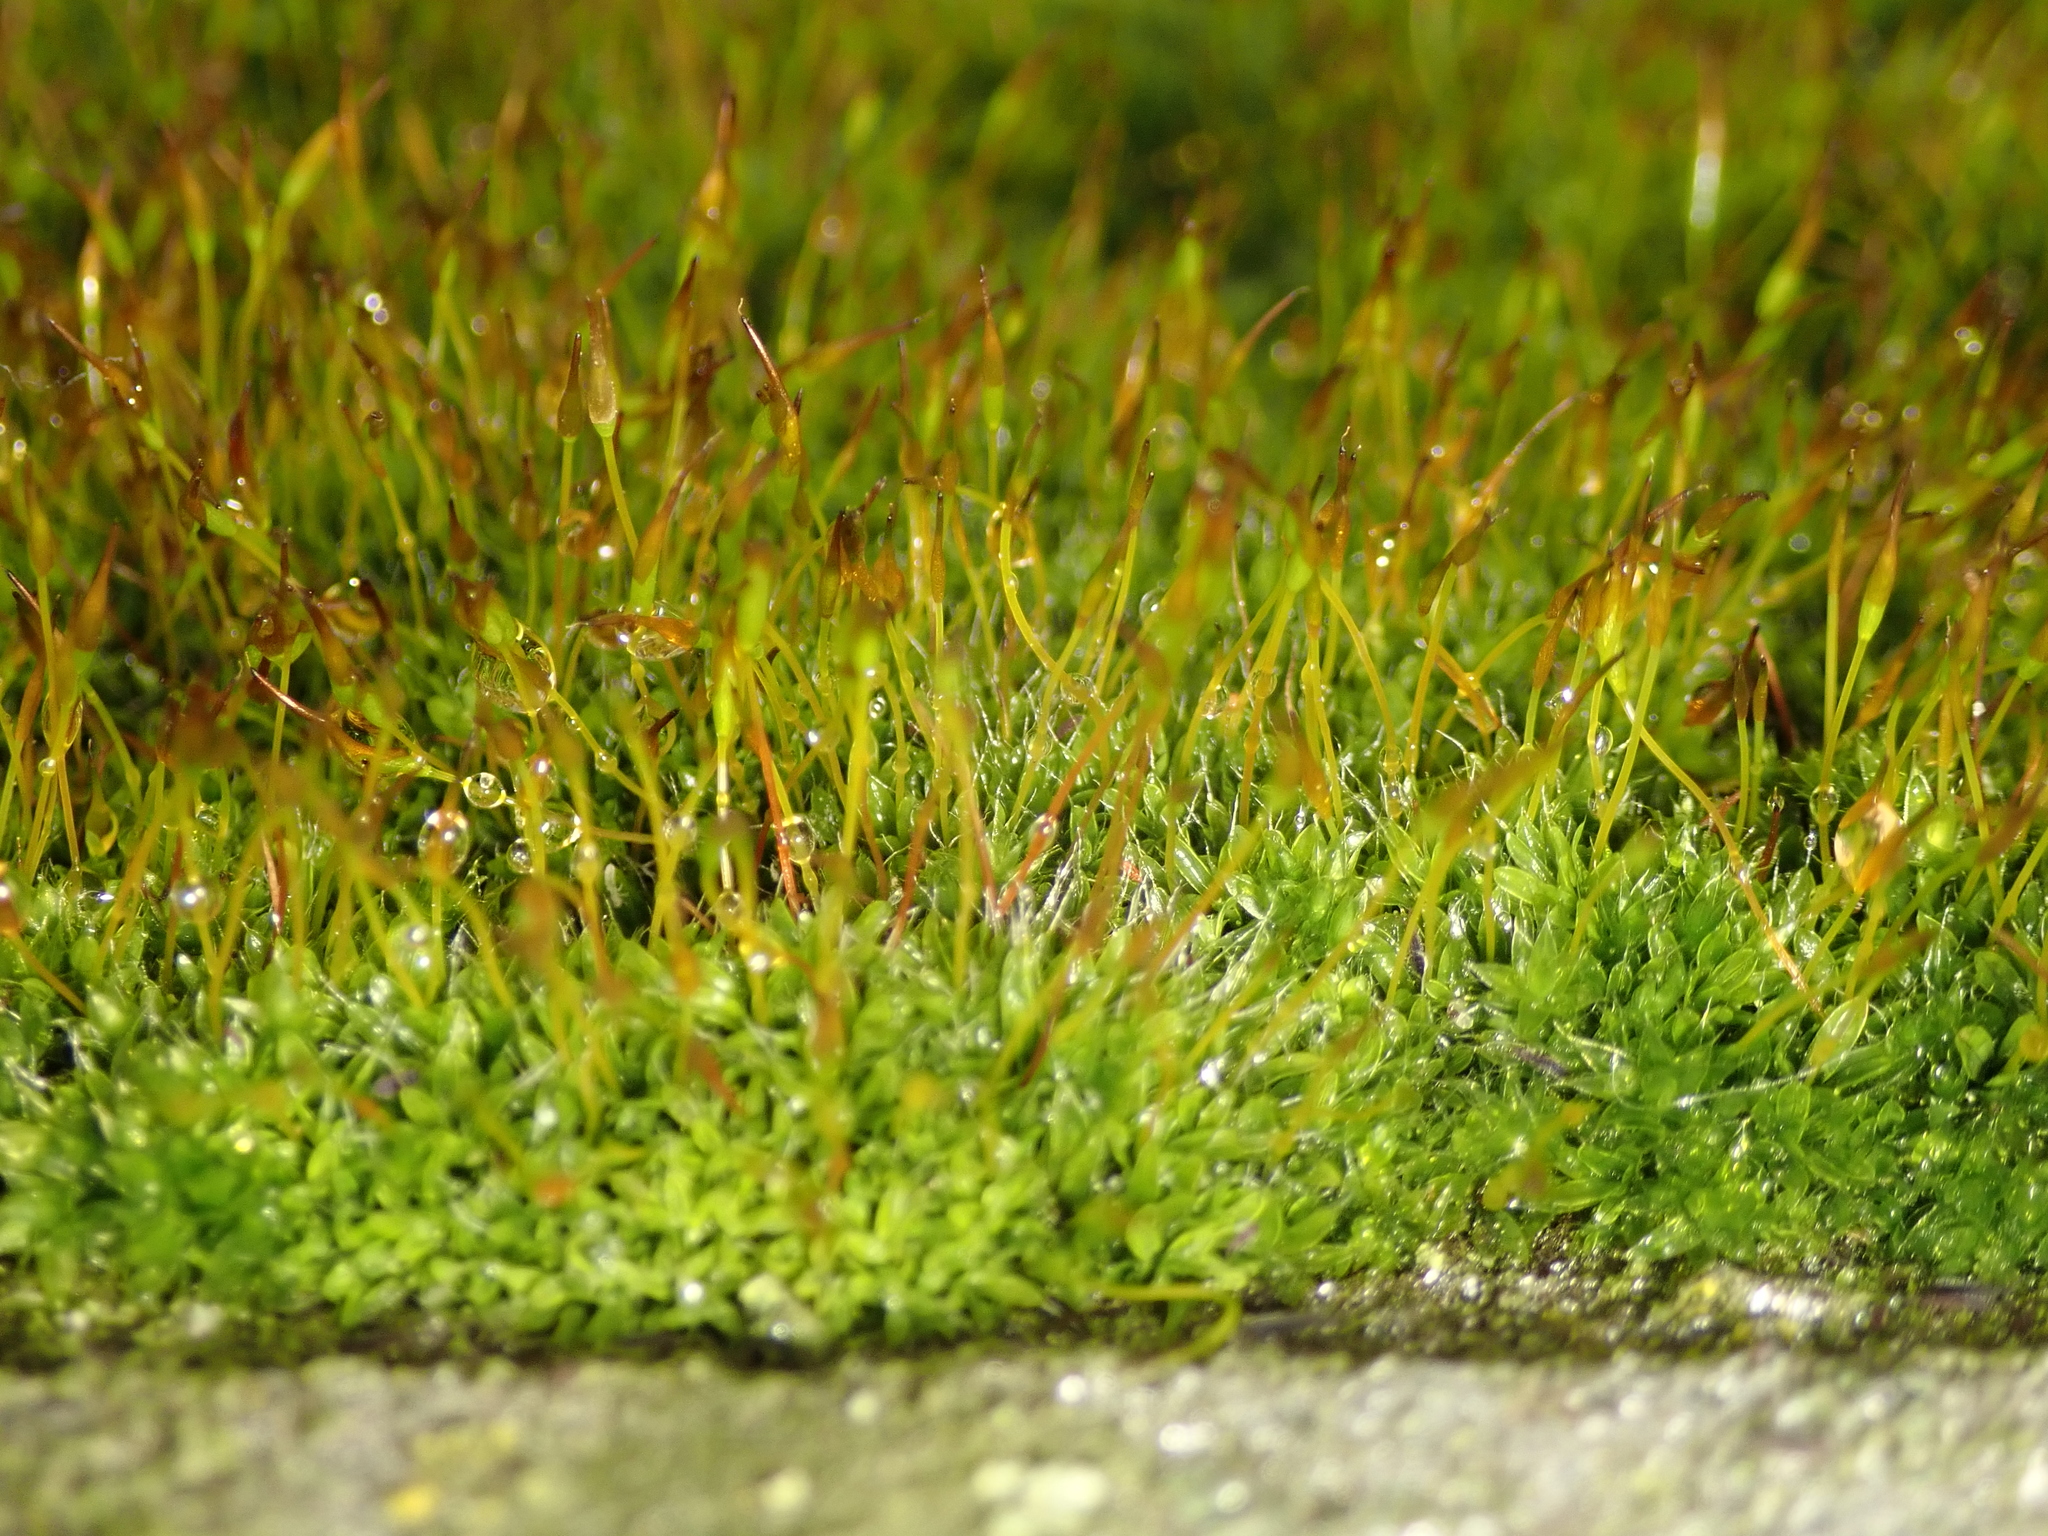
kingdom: Plantae
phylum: Bryophyta
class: Bryopsida
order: Pottiales
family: Pottiaceae
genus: Tortula
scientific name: Tortula muralis
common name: Wall screw-moss
